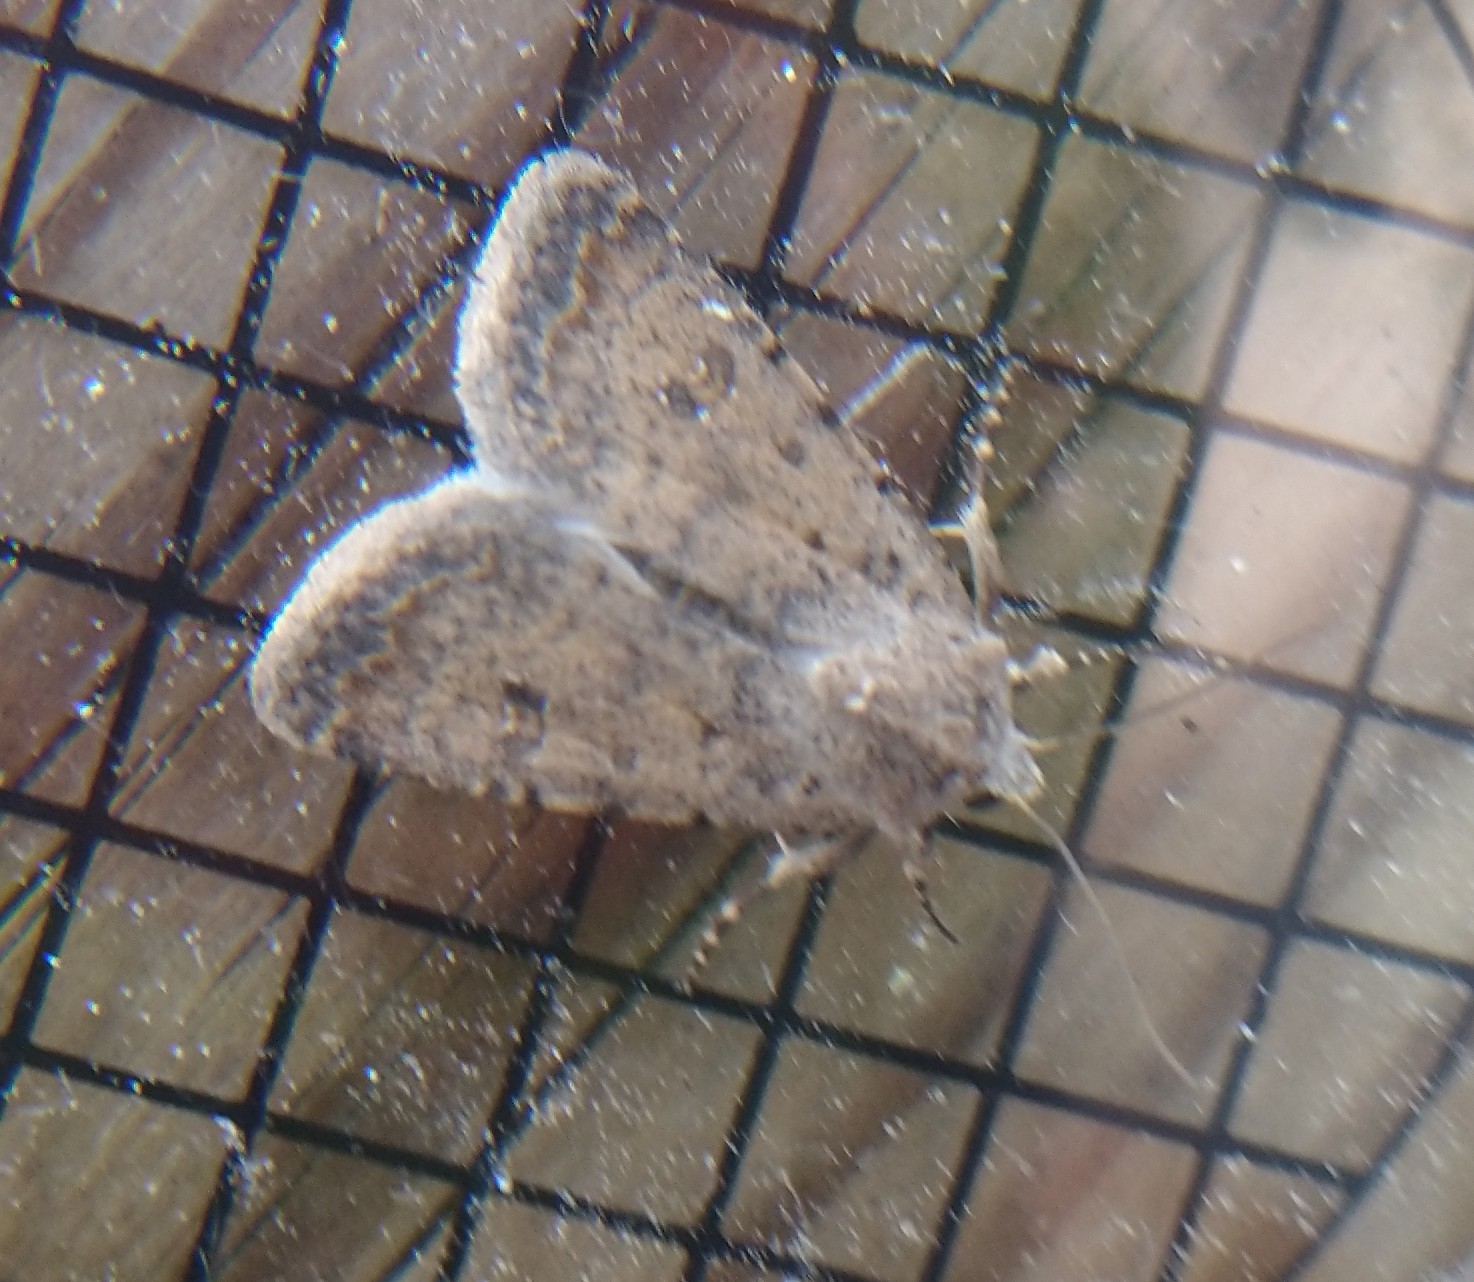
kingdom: Animalia
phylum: Arthropoda
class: Insecta
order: Lepidoptera
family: Noctuidae
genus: Caradrina
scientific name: Caradrina clavipalpis
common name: Pale mottled willow
